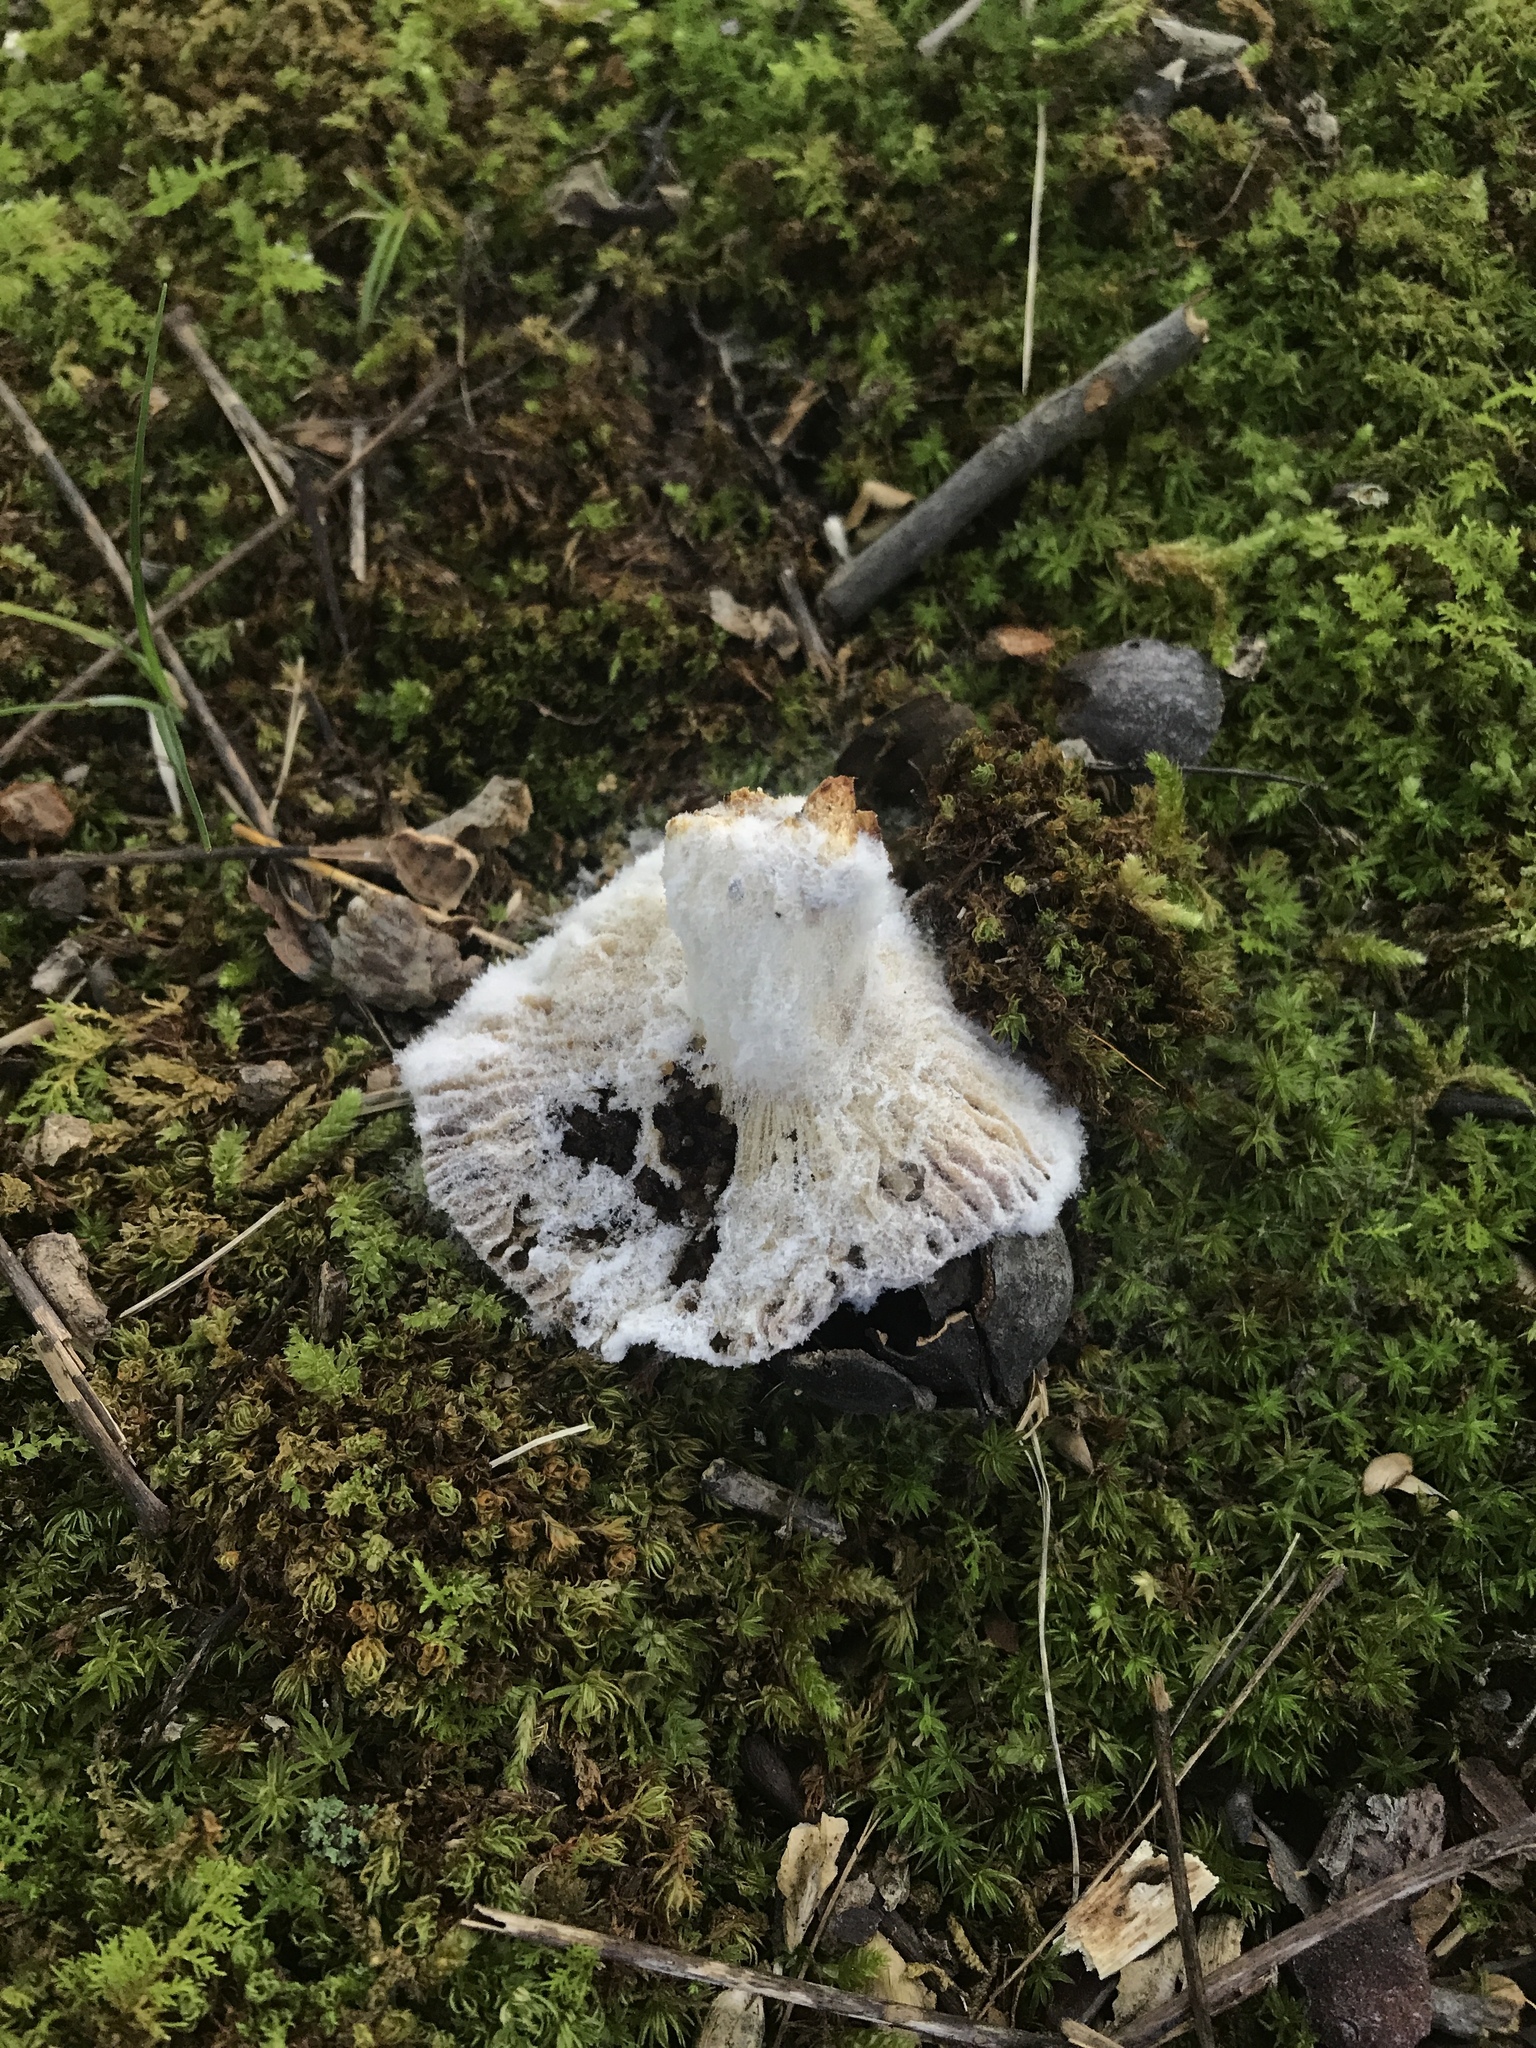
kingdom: Fungi
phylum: Mucoromycota
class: Mucoromycetes
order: Mucorales
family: Rhizopodaceae
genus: Syzygites
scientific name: Syzygites megalocarpus
